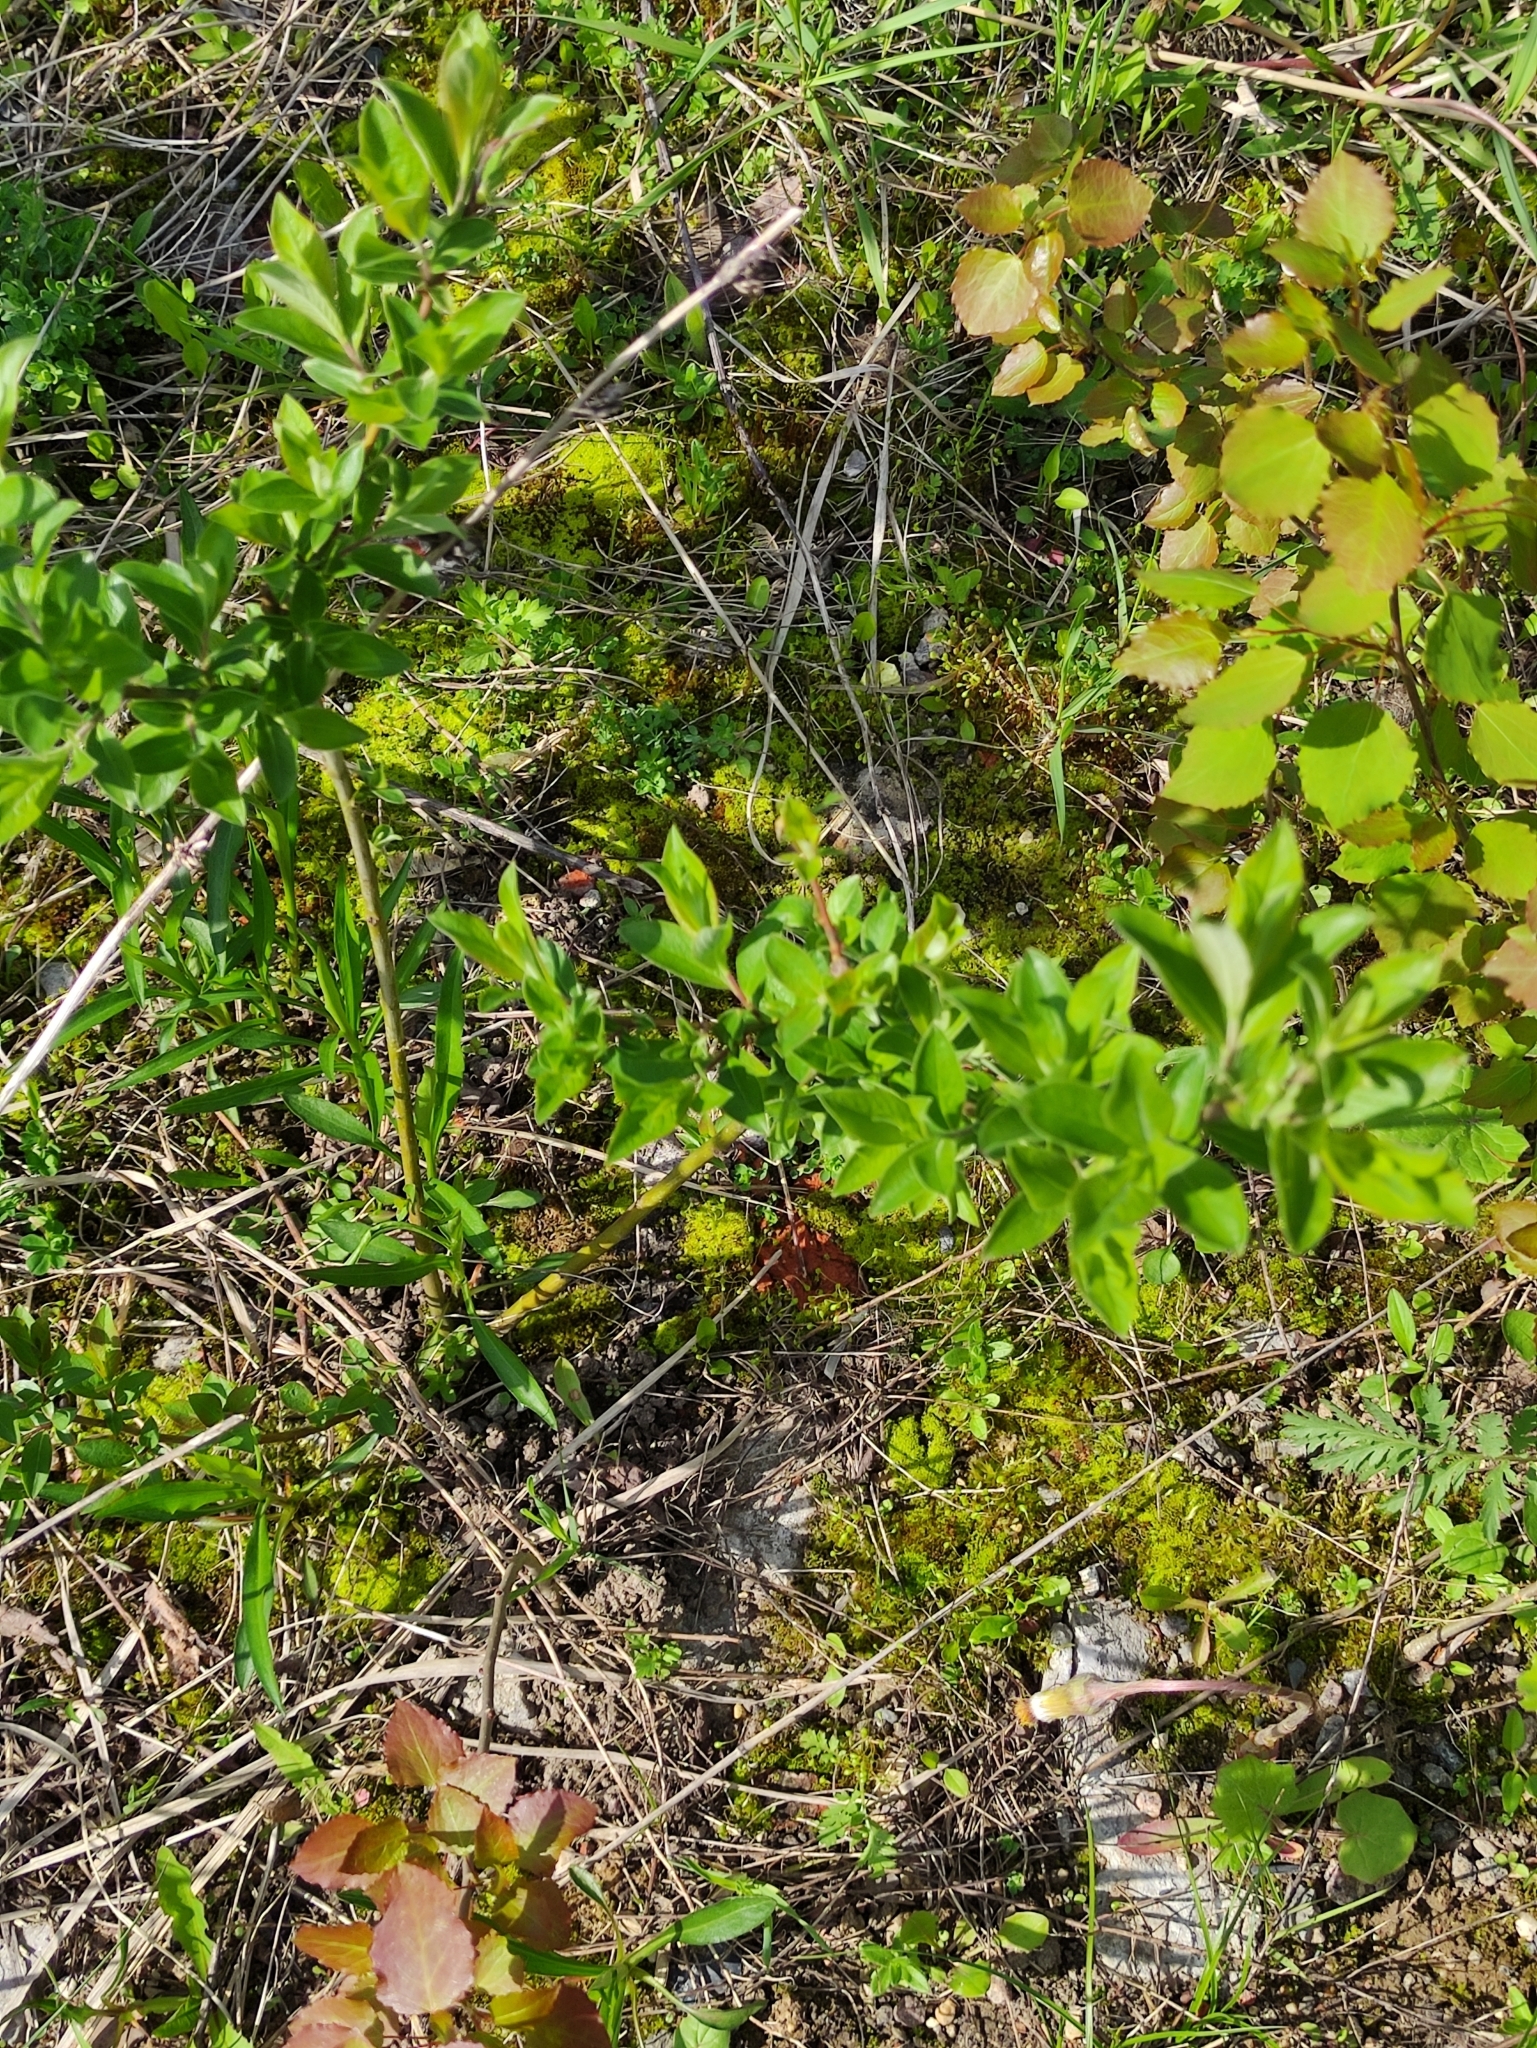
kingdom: Plantae
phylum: Tracheophyta
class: Magnoliopsida
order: Malpighiales
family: Salicaceae
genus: Salix
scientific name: Salix myrsinifolia
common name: Dark-leaved willow
